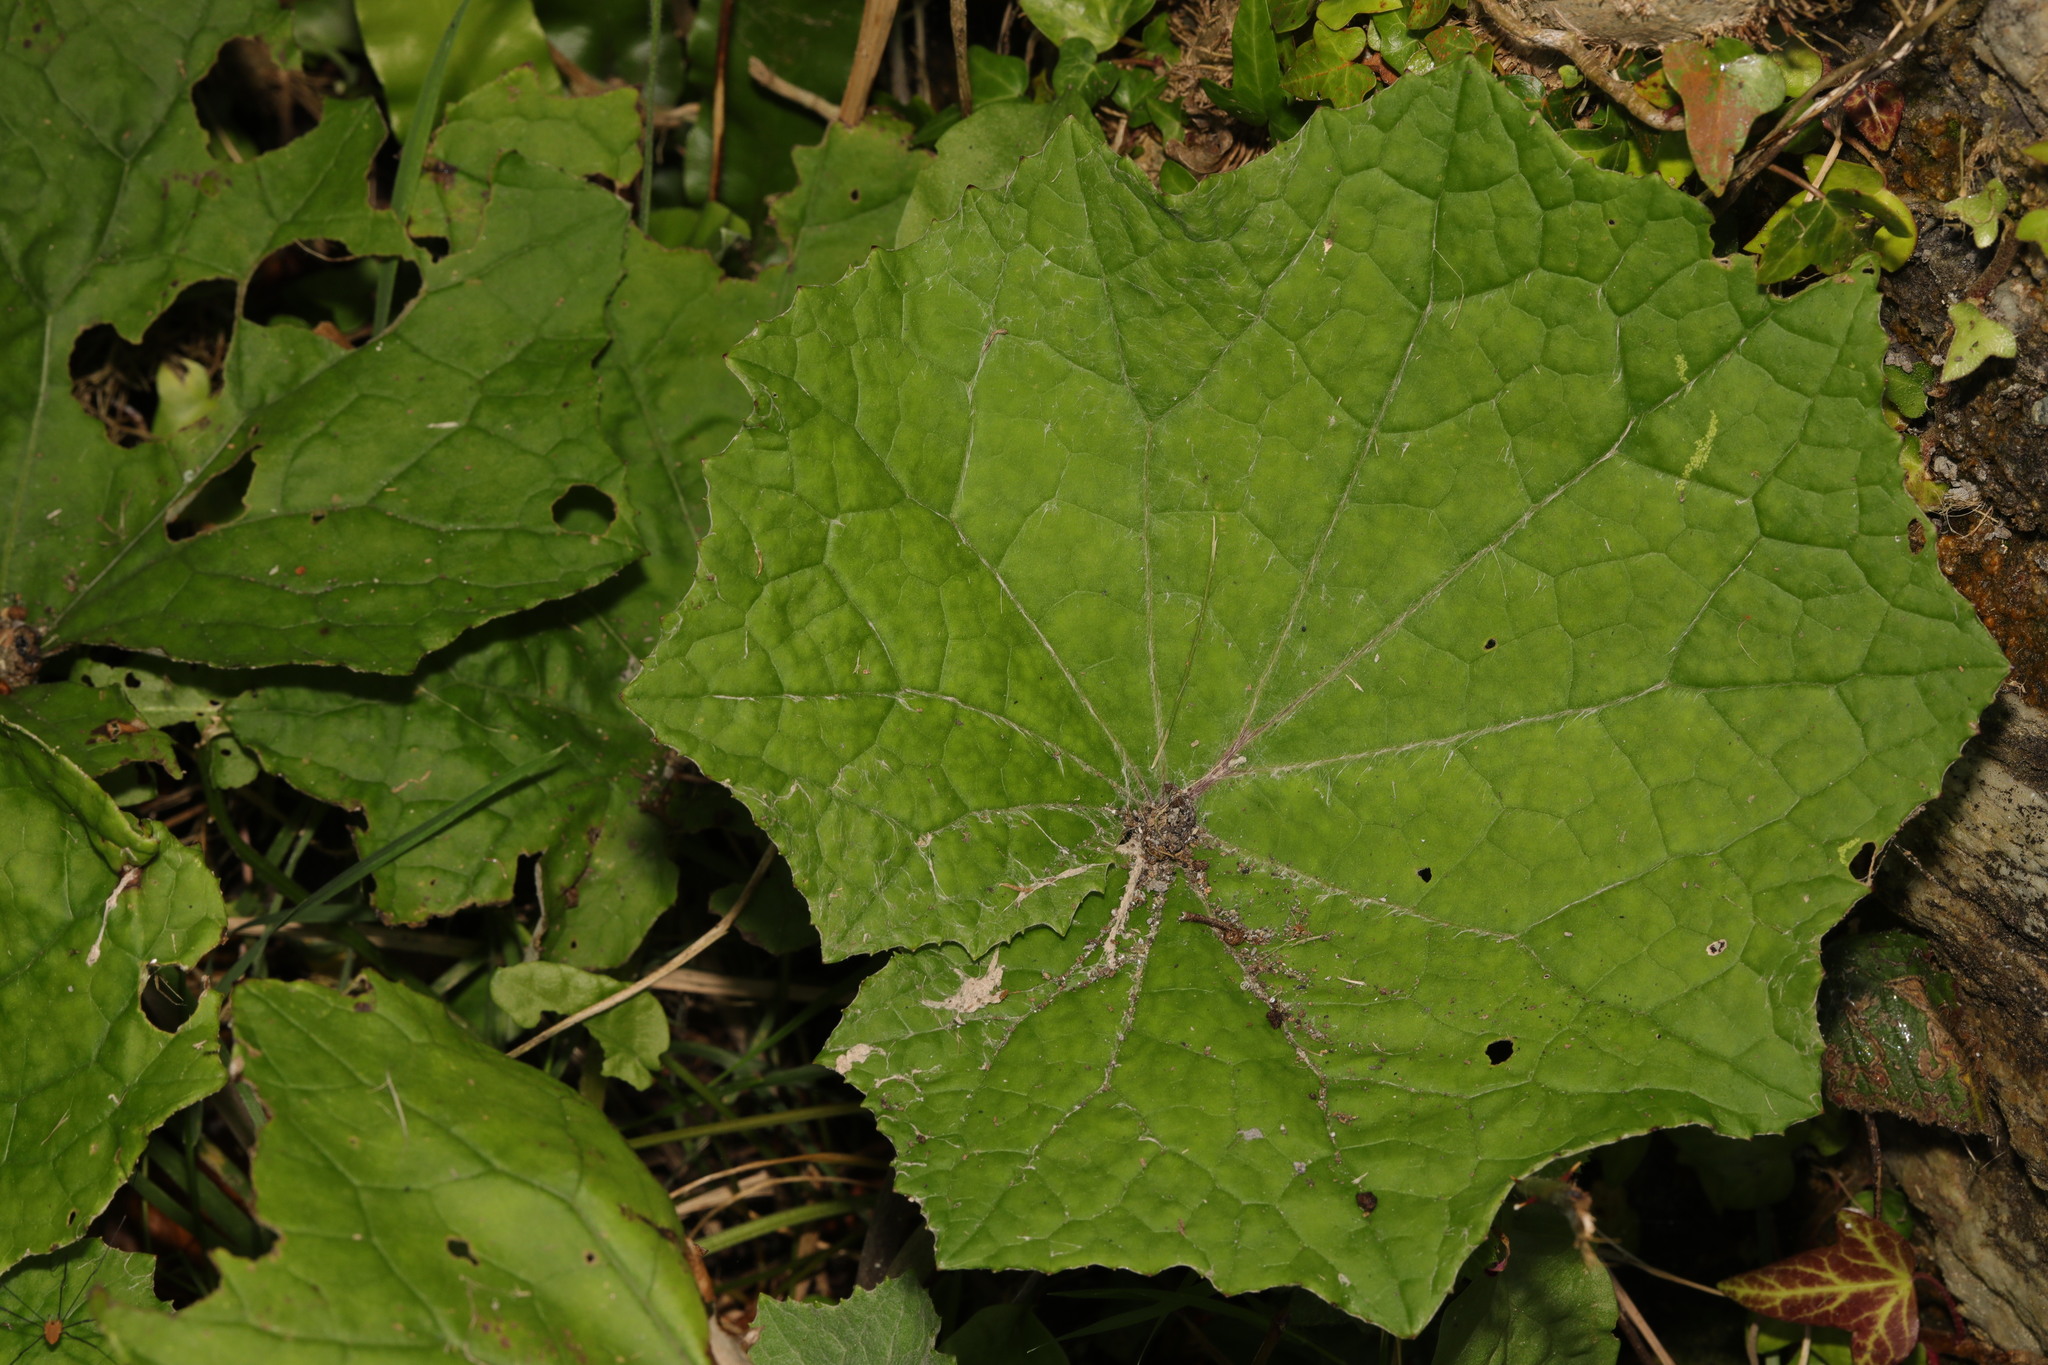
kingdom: Plantae
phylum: Tracheophyta
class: Magnoliopsida
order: Asterales
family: Asteraceae
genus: Tussilago
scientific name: Tussilago farfara
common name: Coltsfoot
